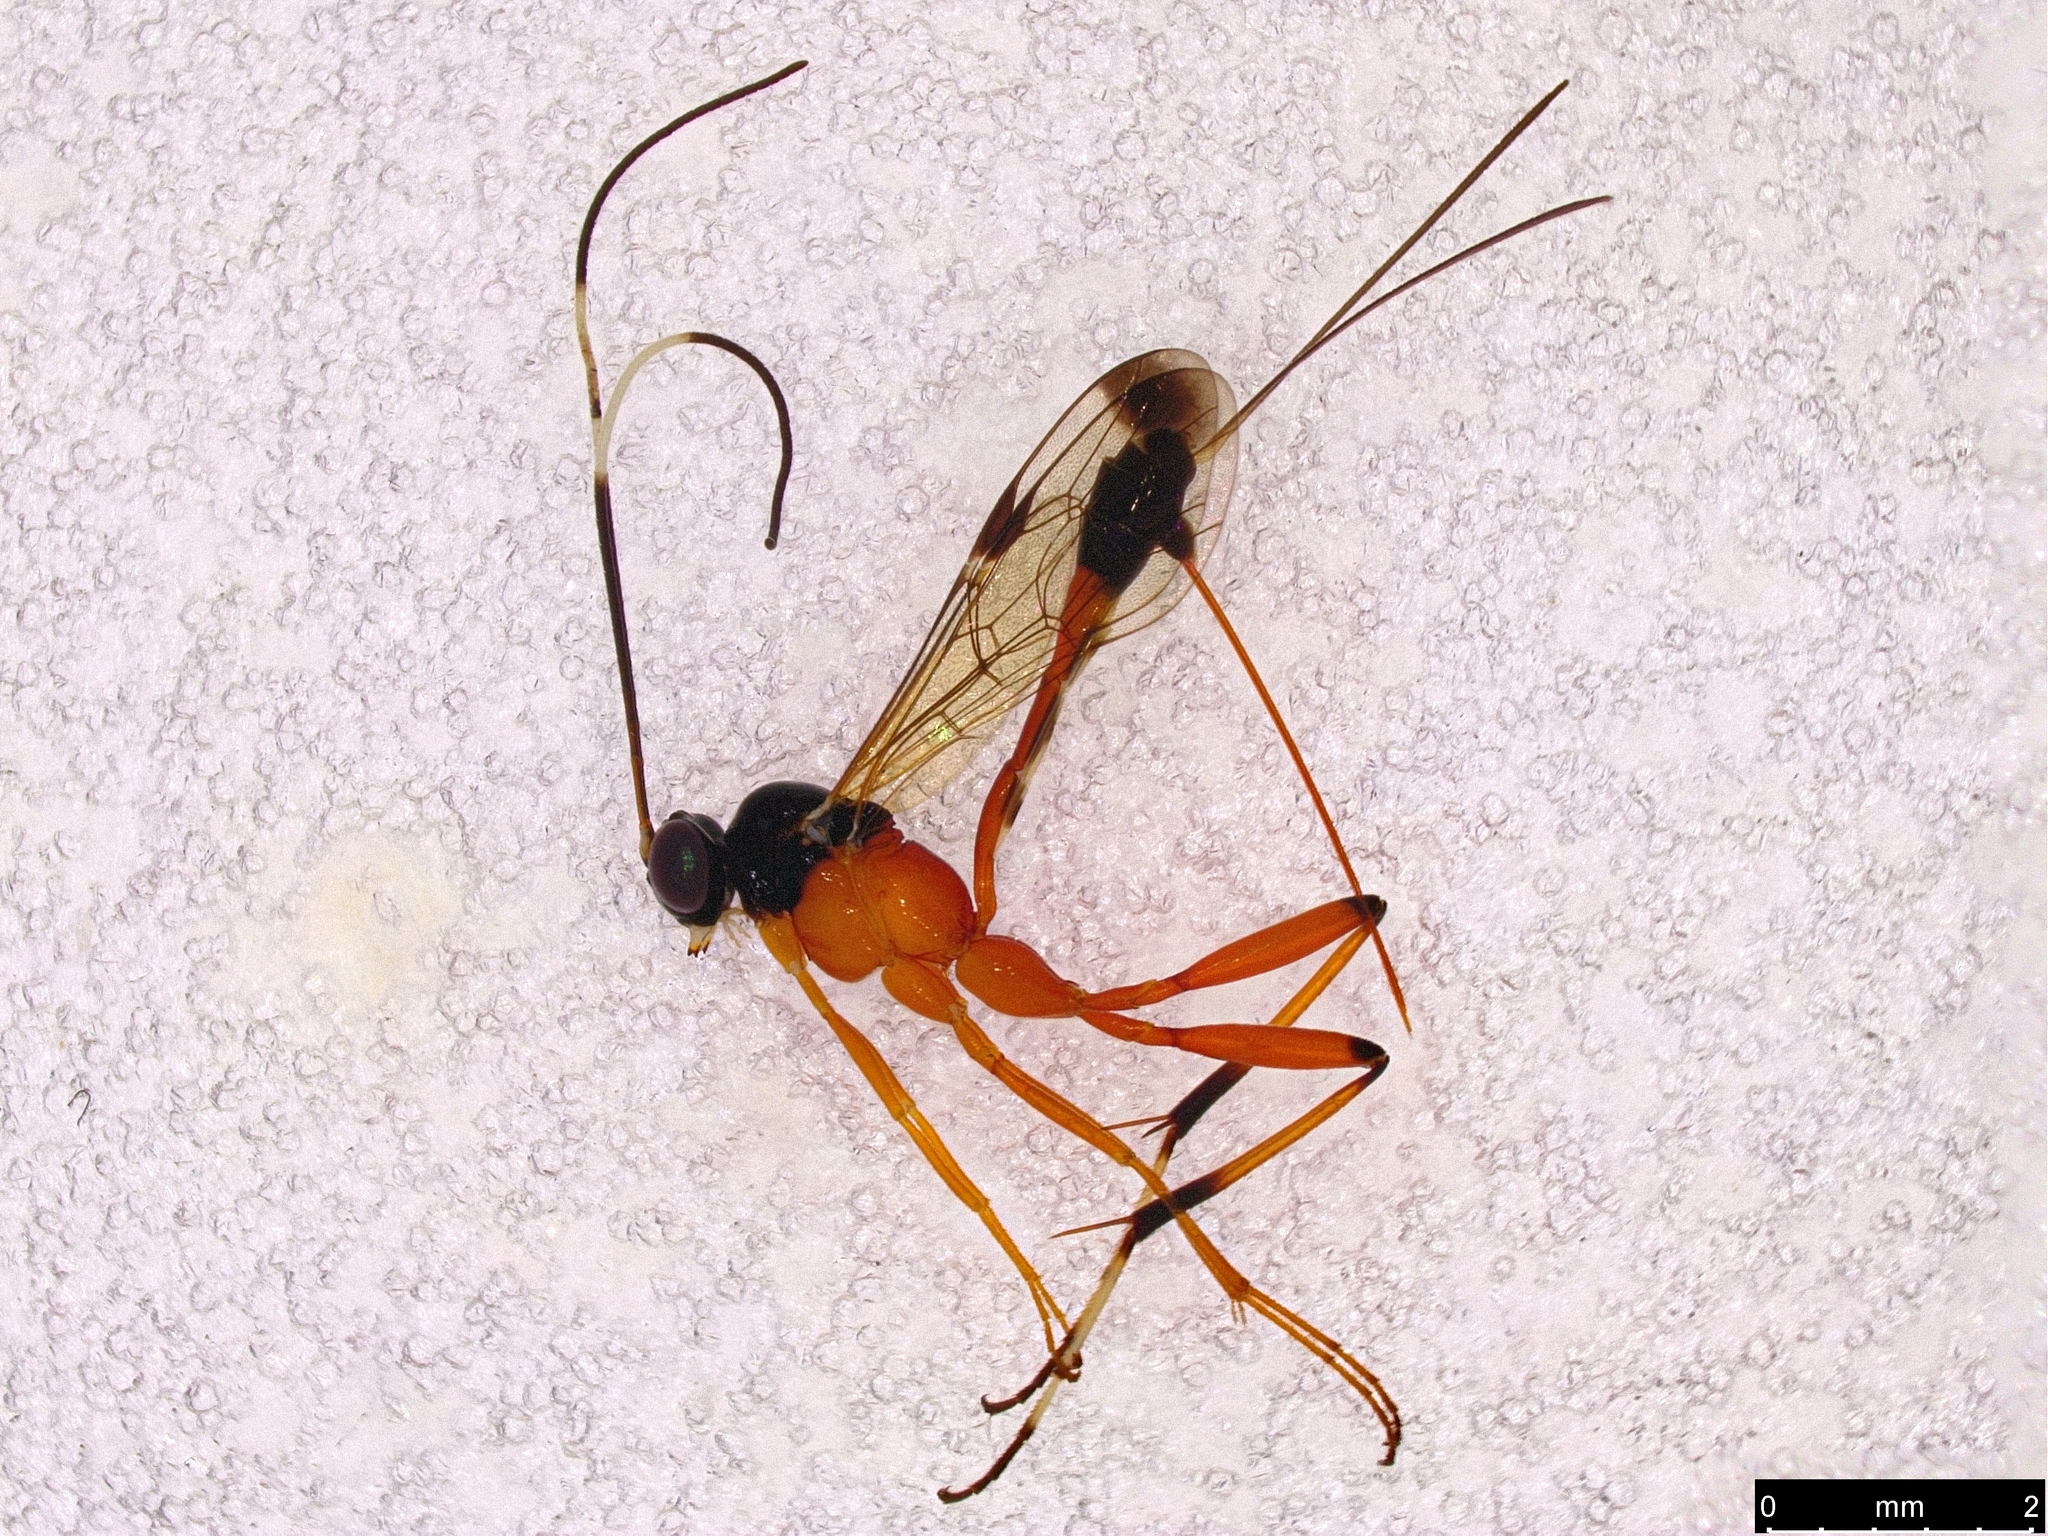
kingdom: Animalia
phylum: Arthropoda
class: Insecta
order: Hymenoptera
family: Ichneumonidae
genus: Leptobatopsis
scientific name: Leptobatopsis mesominiata
